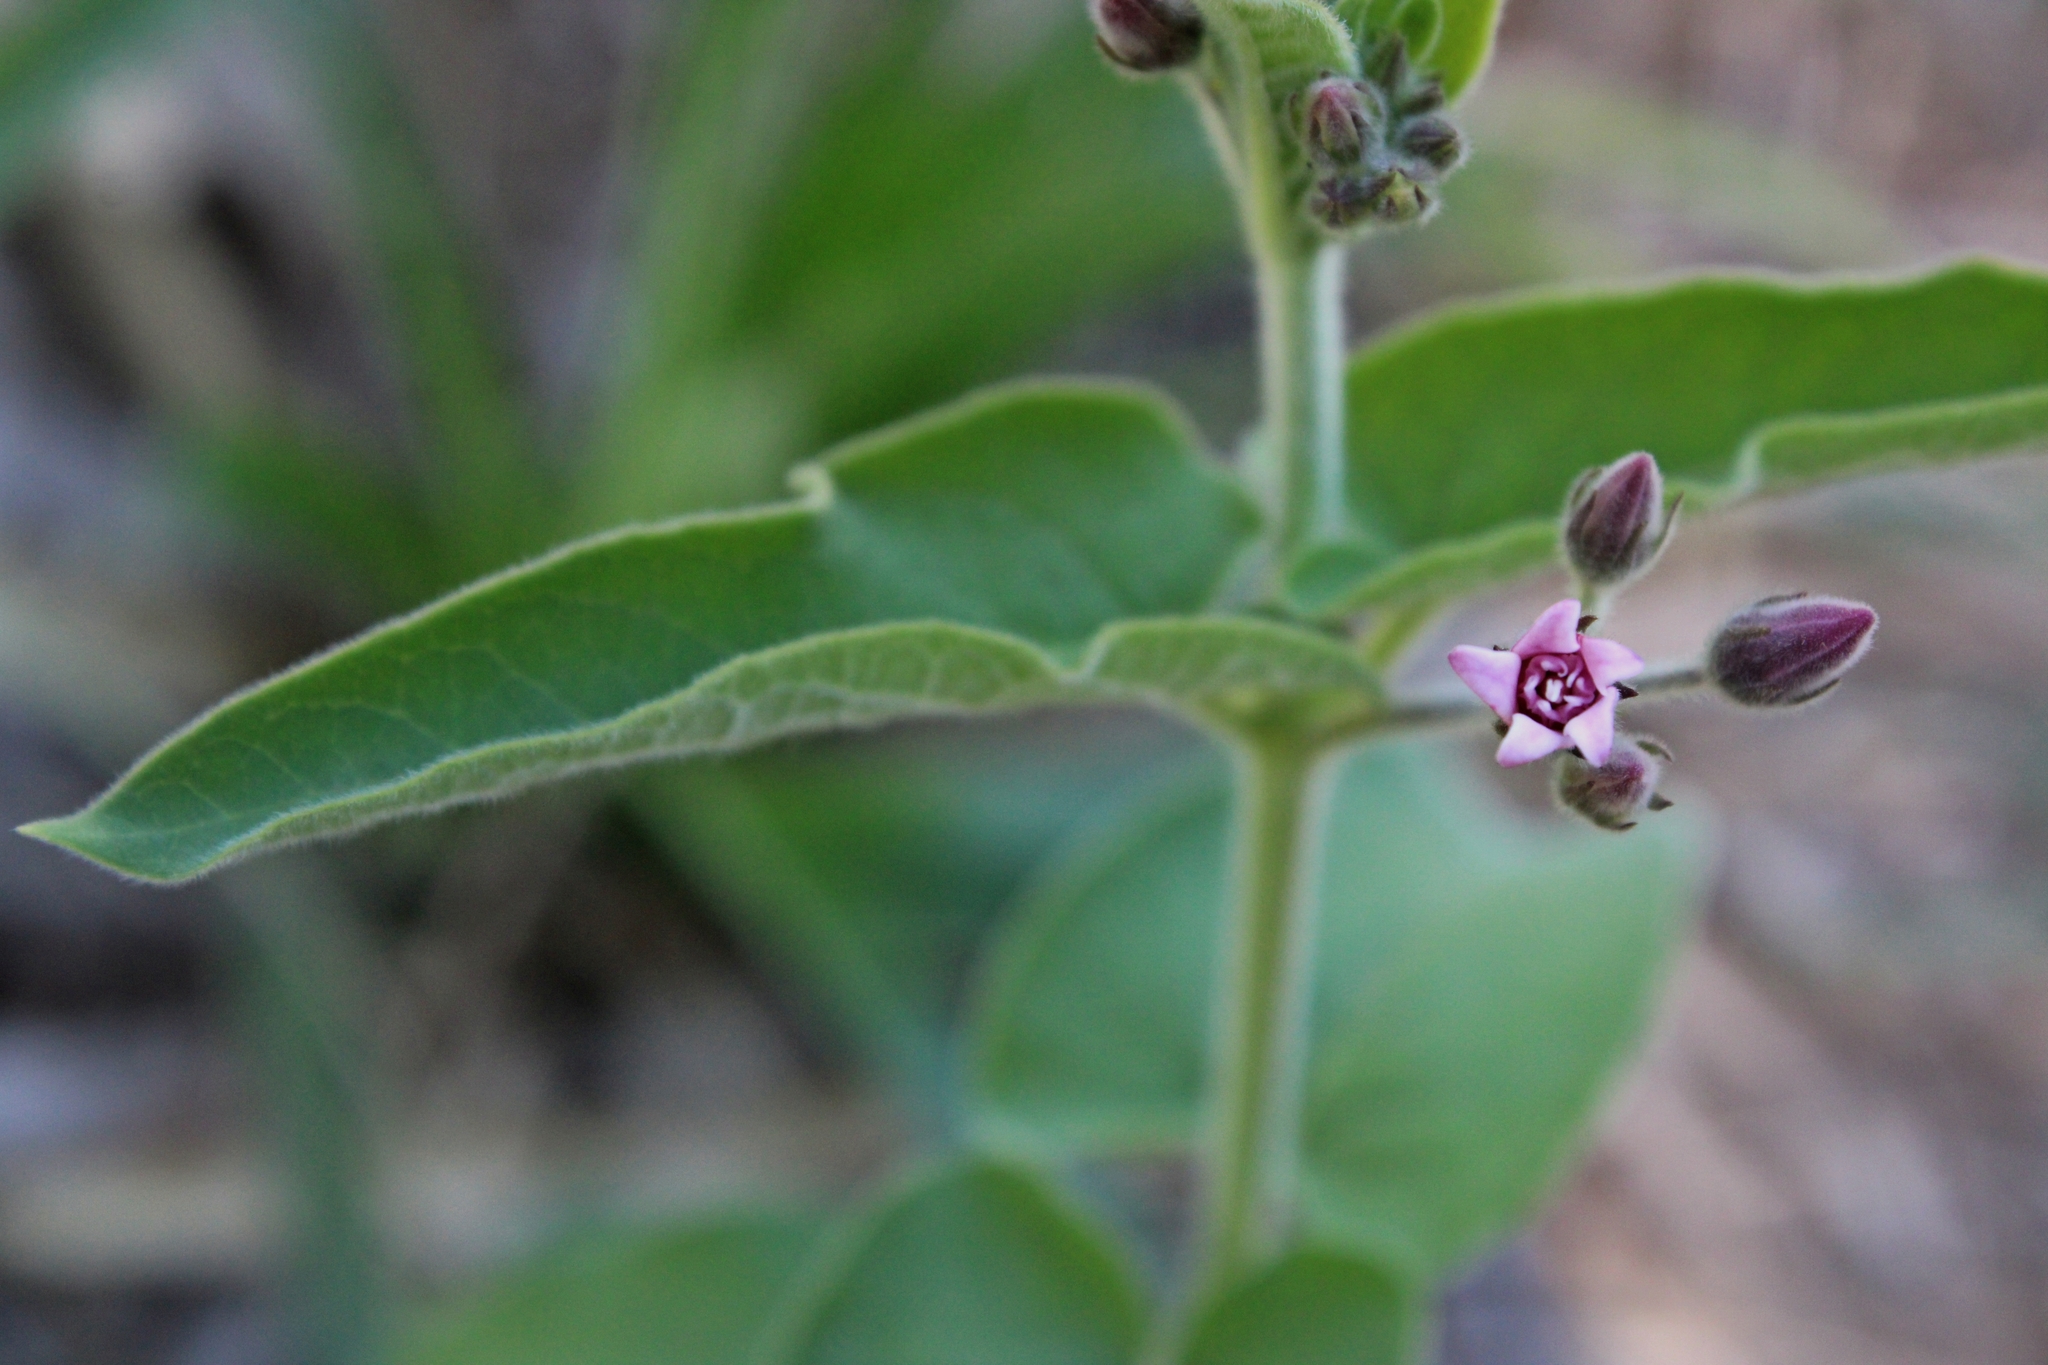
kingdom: Plantae
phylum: Tracheophyta
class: Magnoliopsida
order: Gentianales
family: Apocynaceae
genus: Oxypetalum
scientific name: Oxypetalum solanoides
